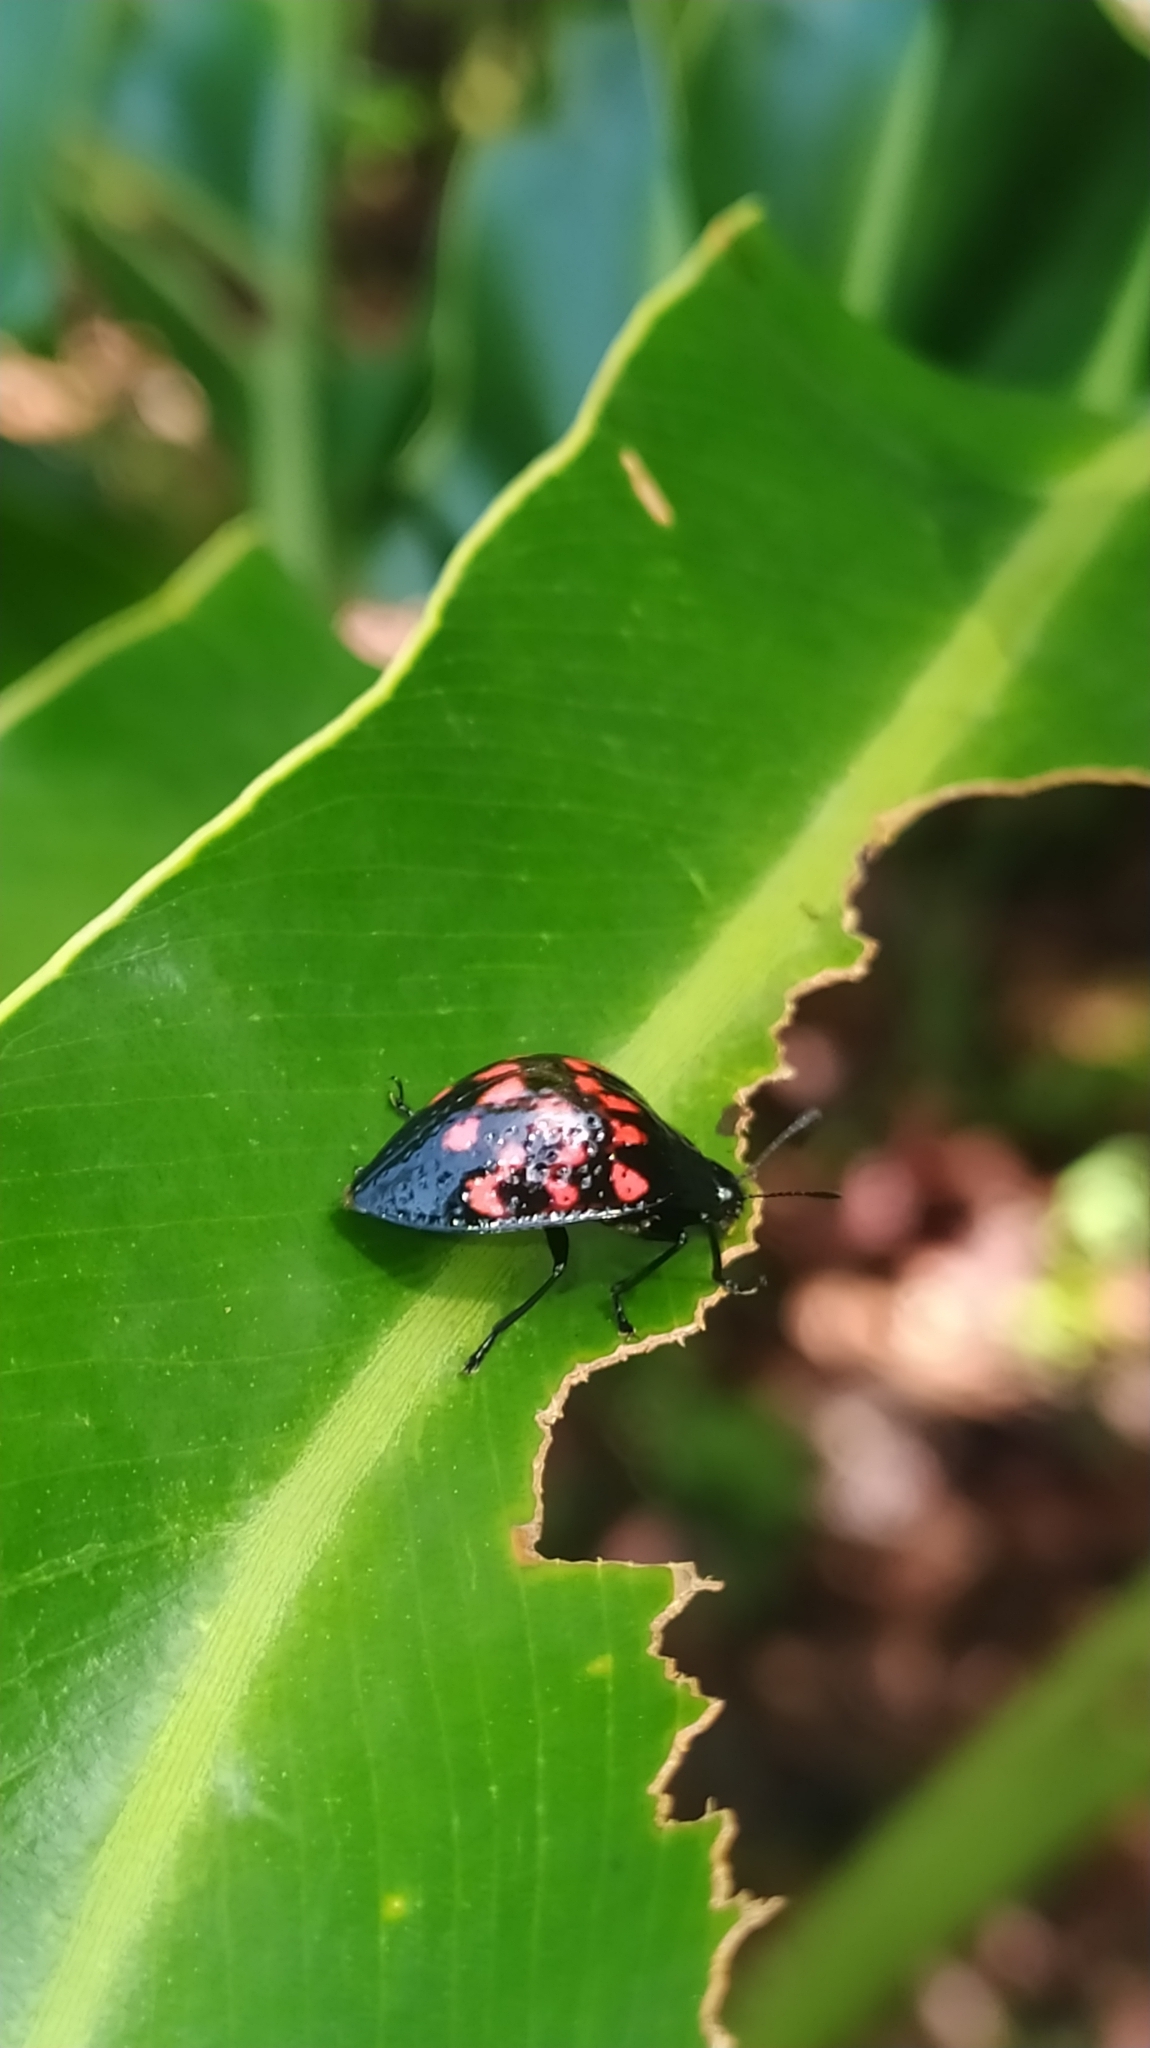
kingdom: Animalia
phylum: Arthropoda
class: Insecta
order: Coleoptera
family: Erotylidae
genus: Erotylus
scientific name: Erotylus
